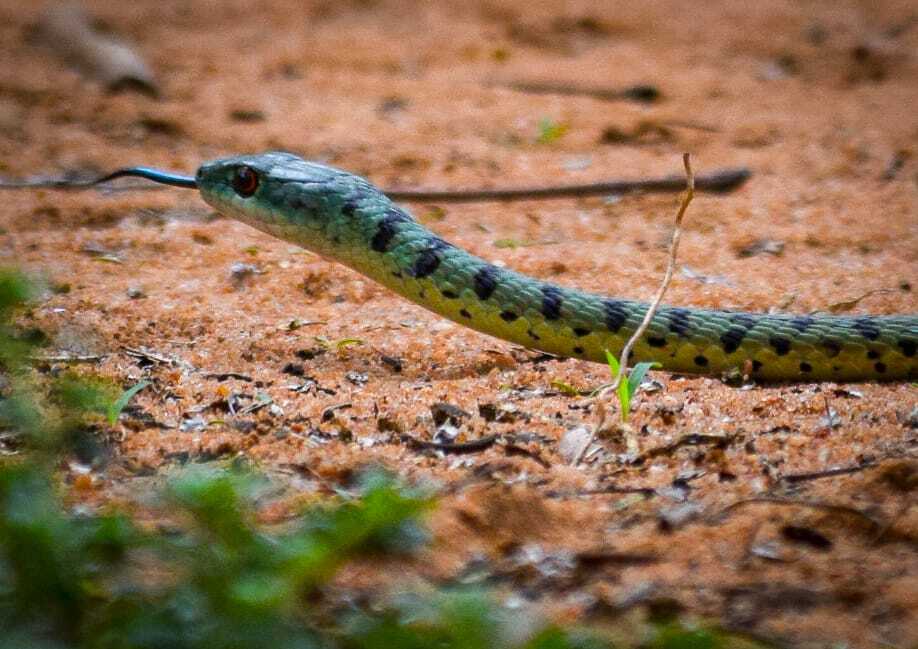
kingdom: Animalia
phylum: Chordata
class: Squamata
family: Colubridae
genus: Philothamnus
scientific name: Philothamnus semivariegatus
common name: Spotted bush snake
